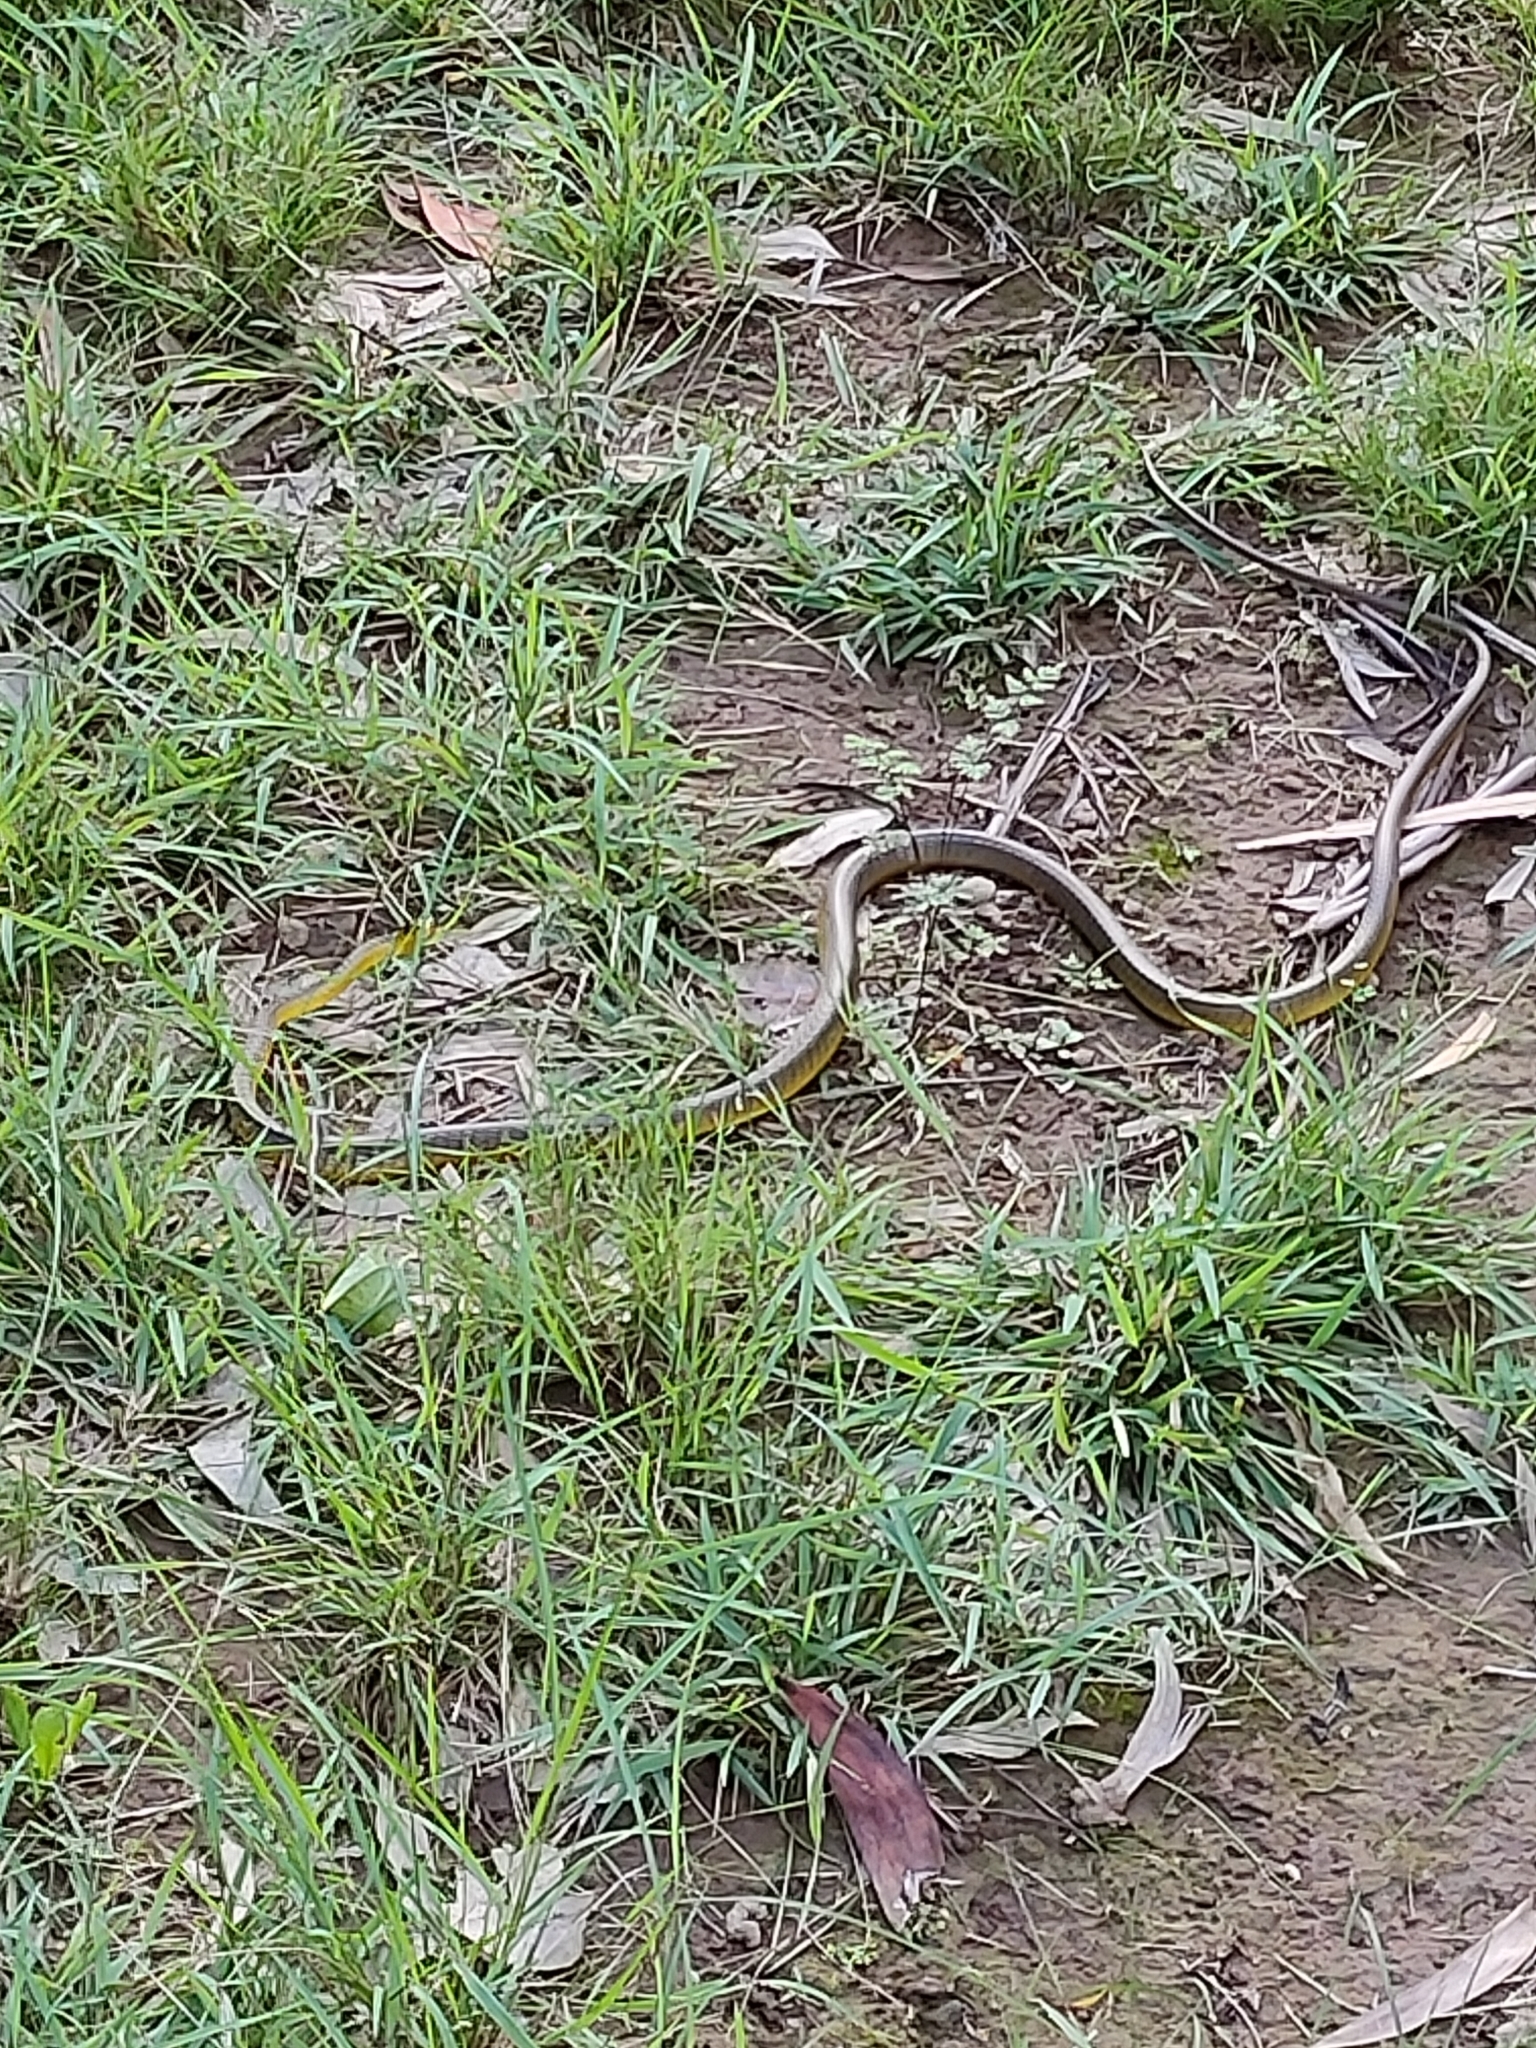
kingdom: Animalia
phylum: Chordata
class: Squamata
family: Colubridae
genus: Dendrelaphis
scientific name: Dendrelaphis punctulatus
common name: Common tree snake
